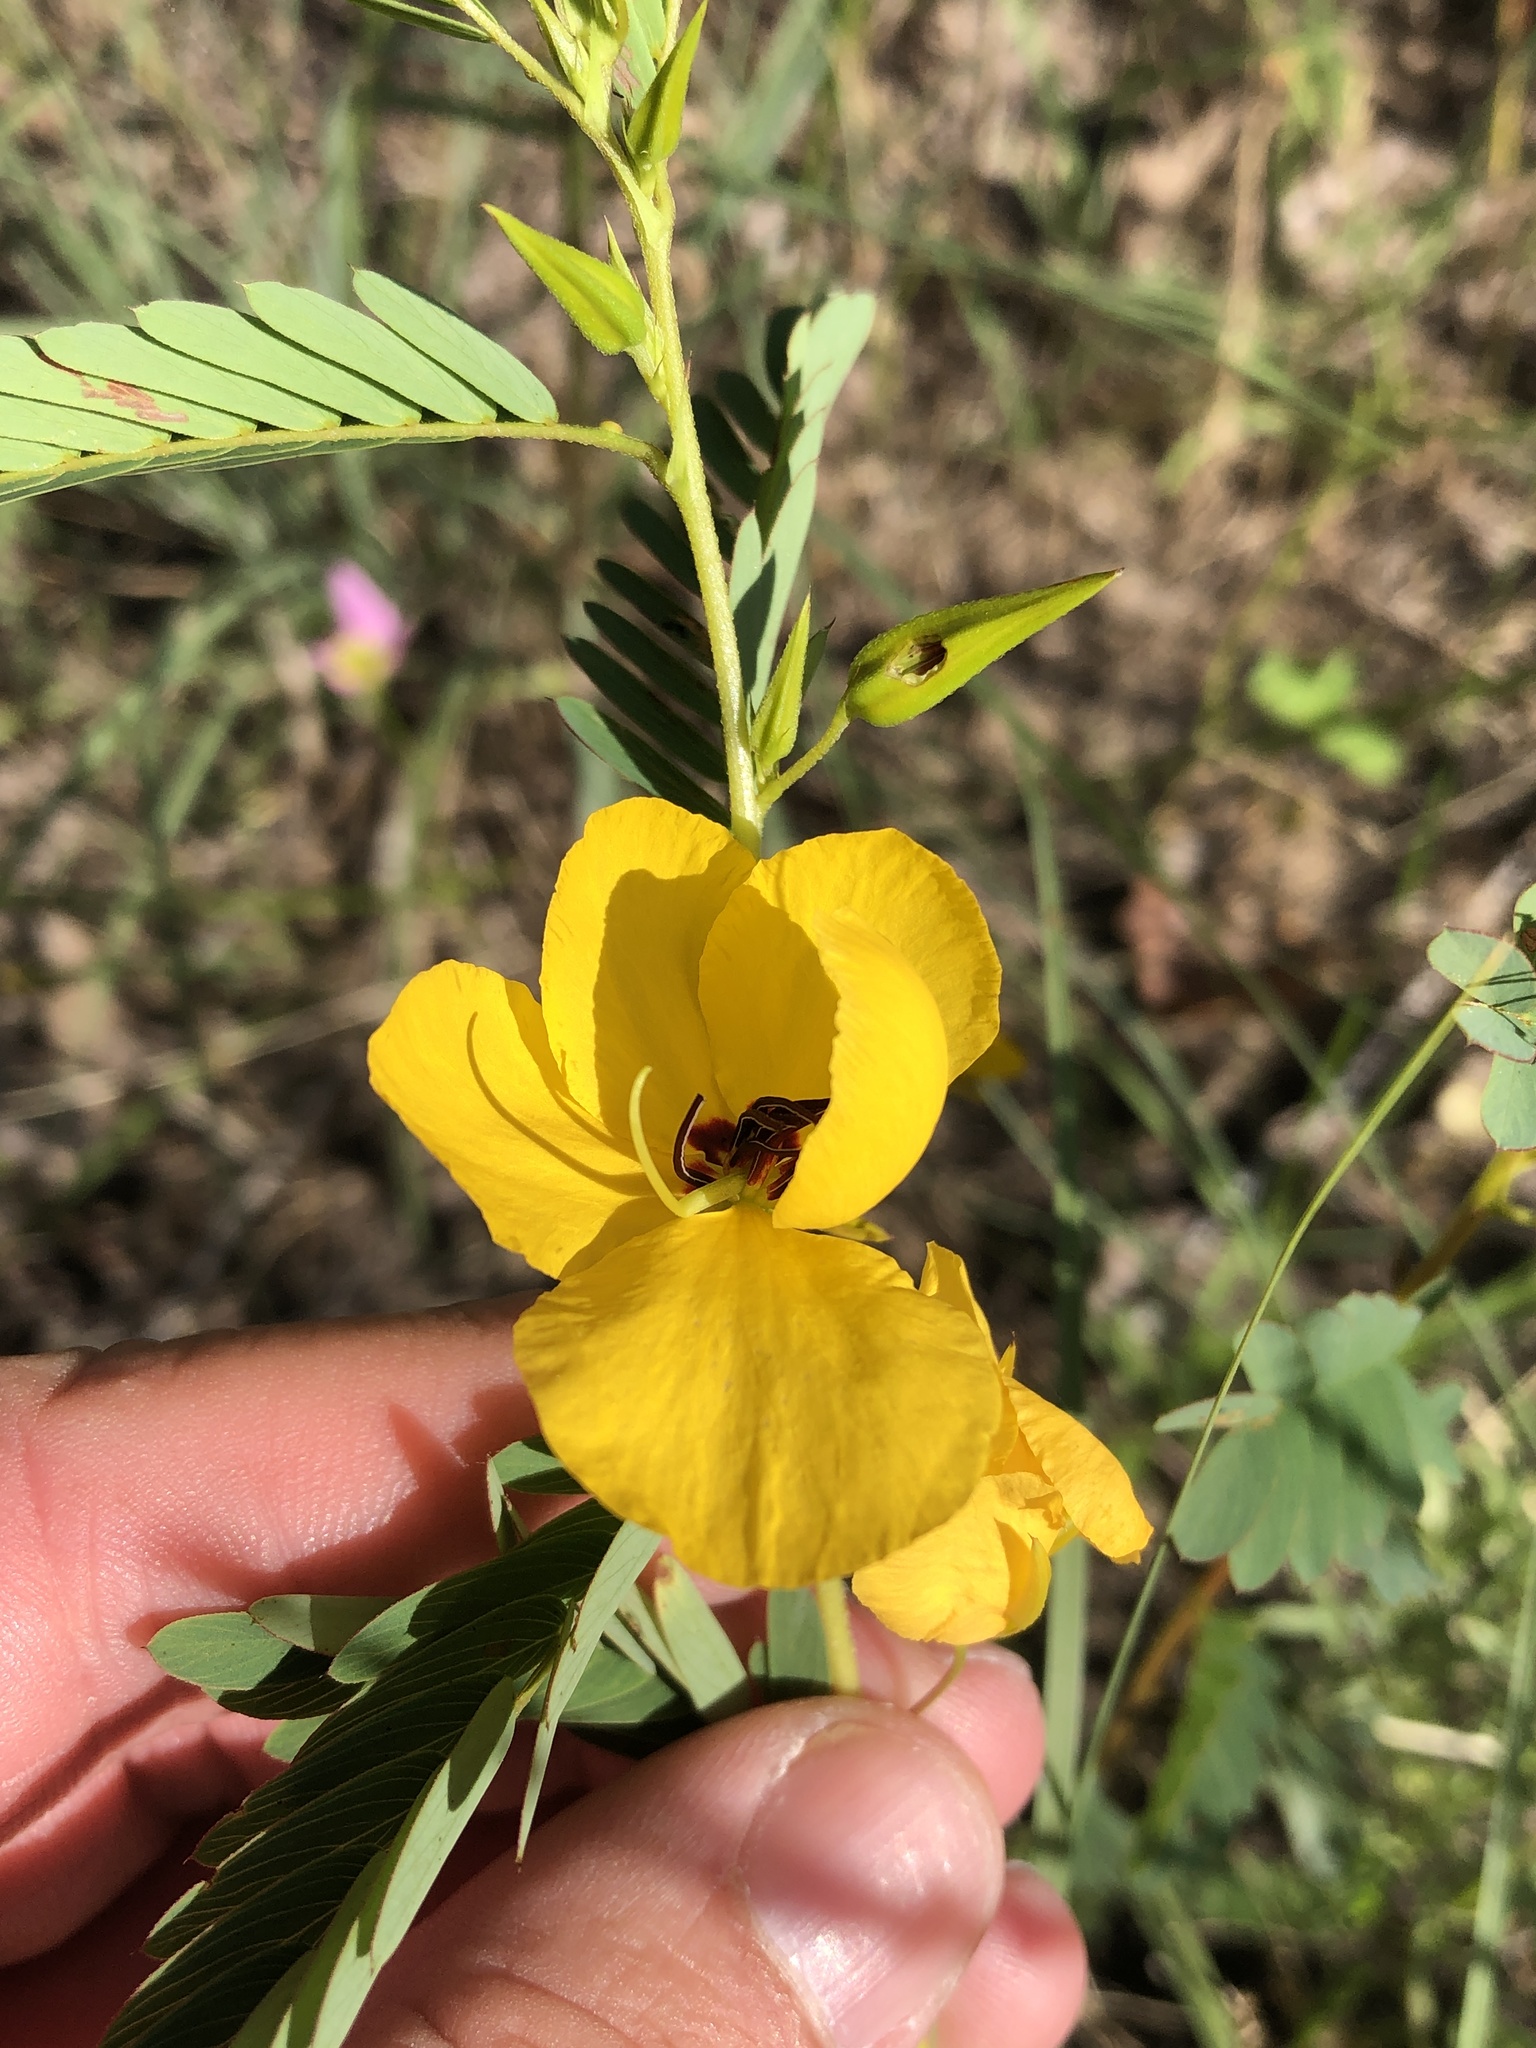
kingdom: Plantae
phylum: Tracheophyta
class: Magnoliopsida
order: Fabales
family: Fabaceae
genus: Chamaecrista
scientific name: Chamaecrista fasciculata
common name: Golden cassia
